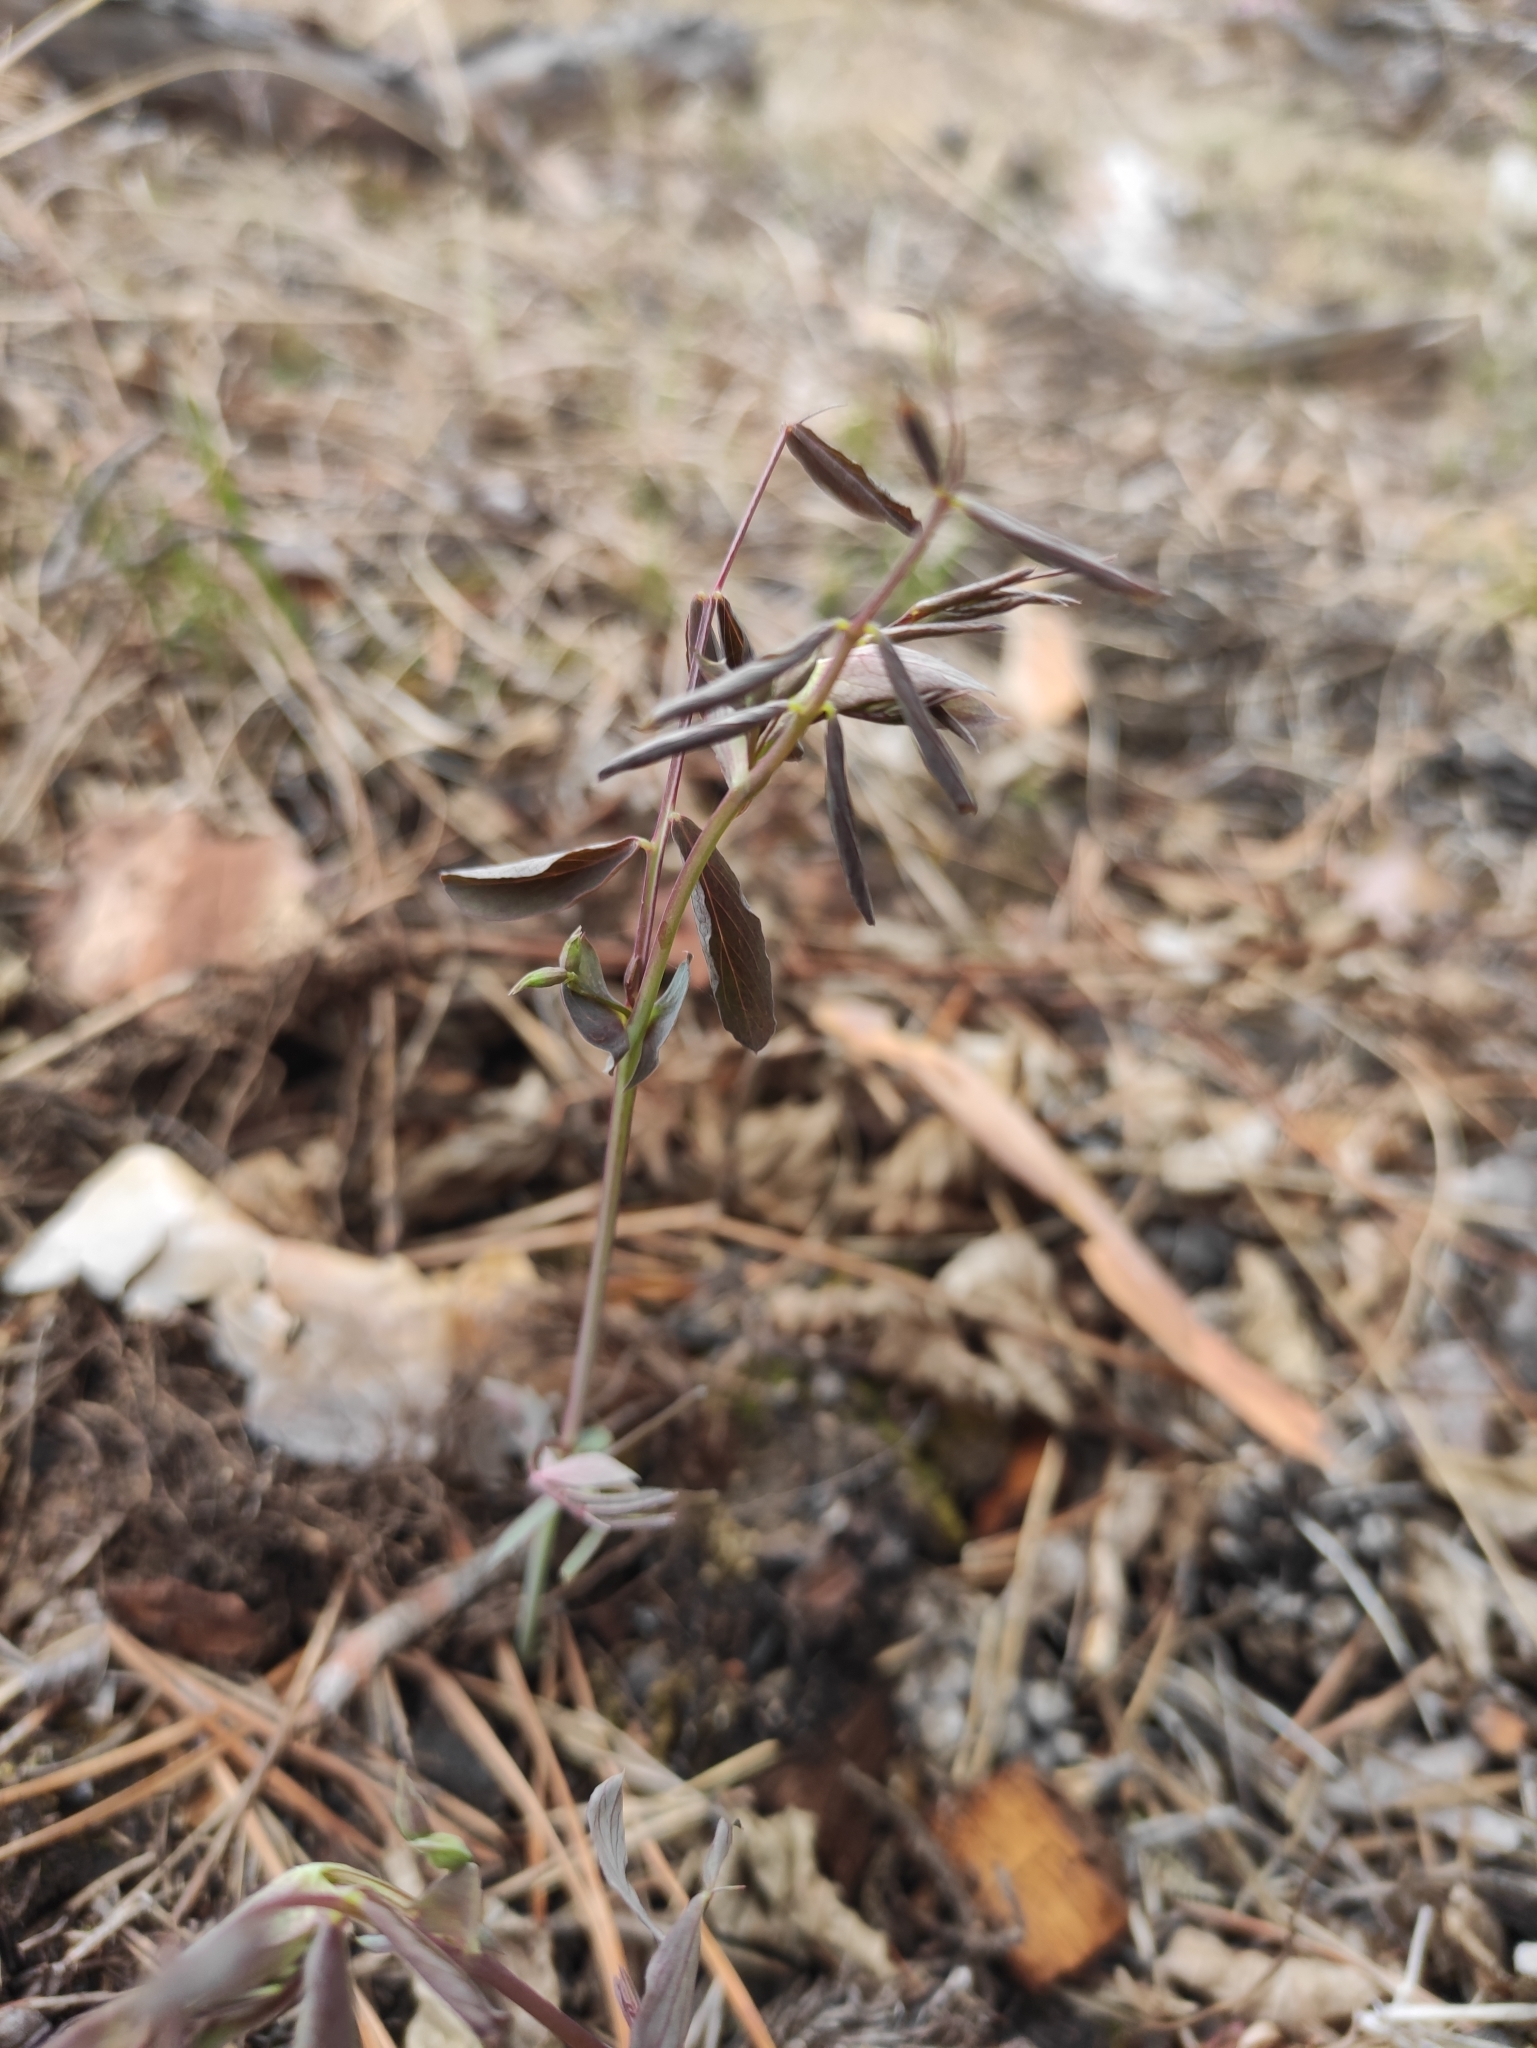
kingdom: Plantae
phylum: Tracheophyta
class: Magnoliopsida
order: Fabales
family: Fabaceae
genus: Lathyrus
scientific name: Lathyrus humilis
